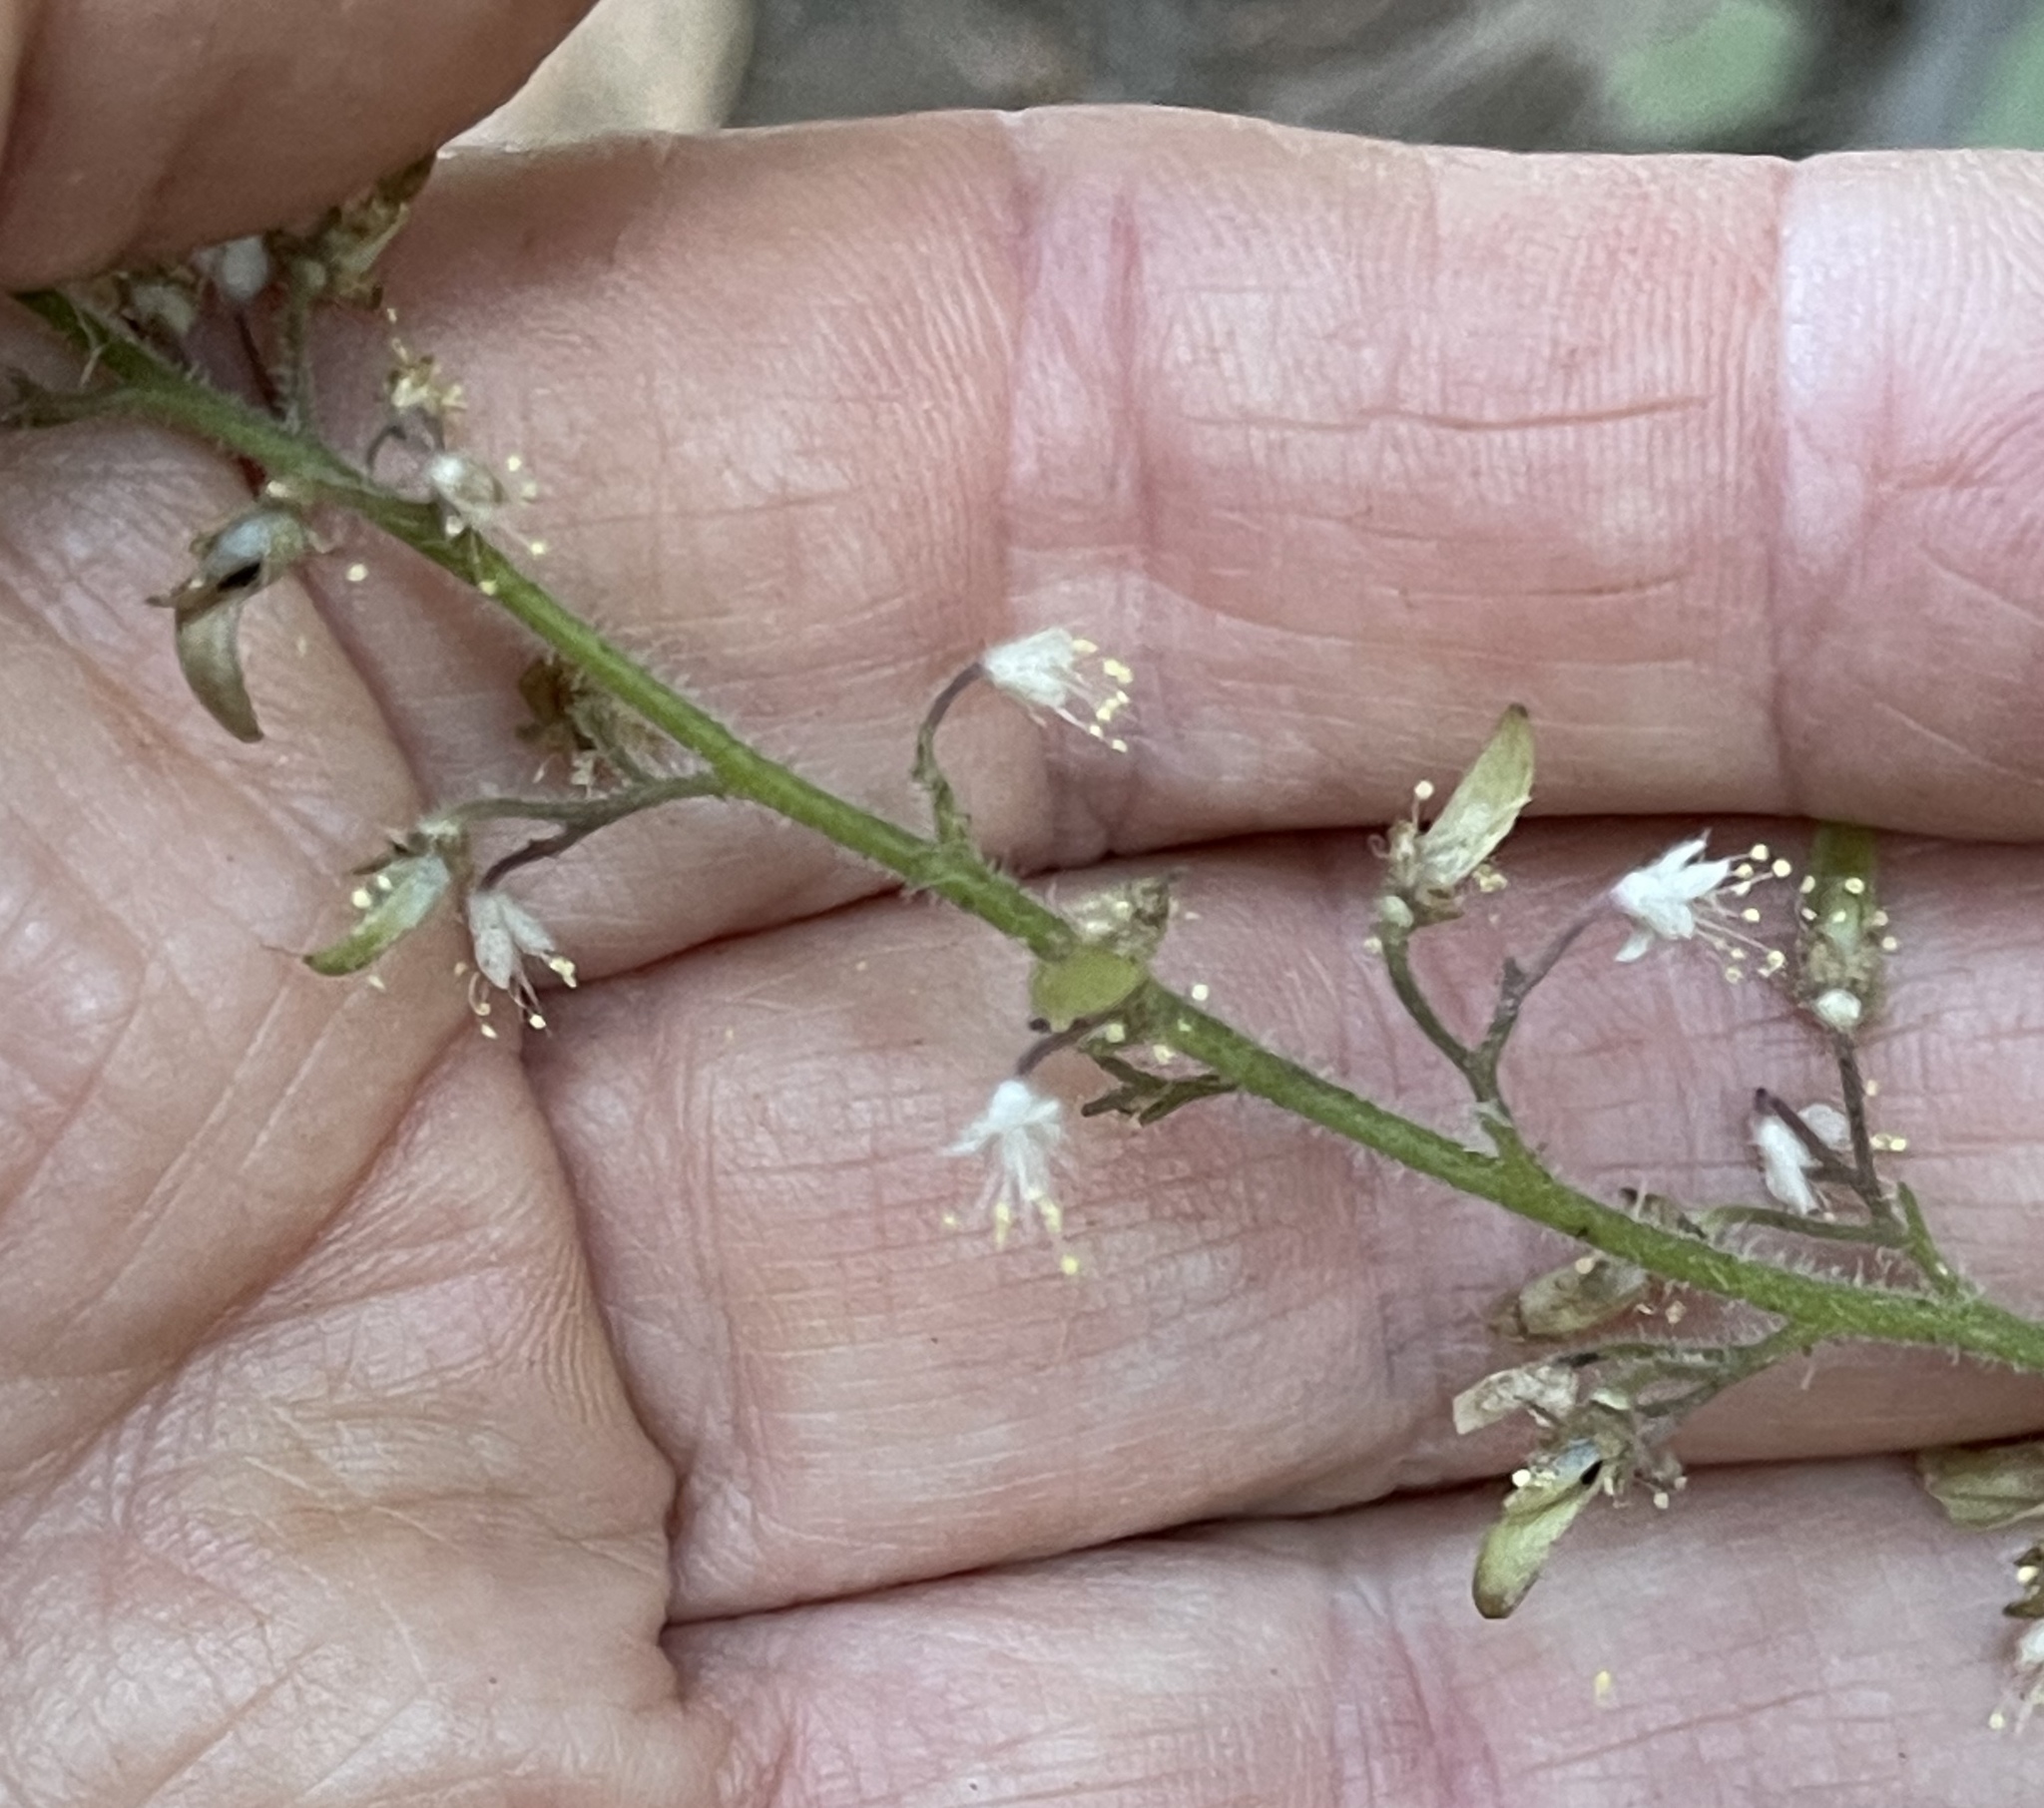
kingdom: Plantae
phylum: Tracheophyta
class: Magnoliopsida
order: Saxifragales
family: Saxifragaceae
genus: Tiarella
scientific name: Tiarella trifoliata
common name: Sugar-scoop
